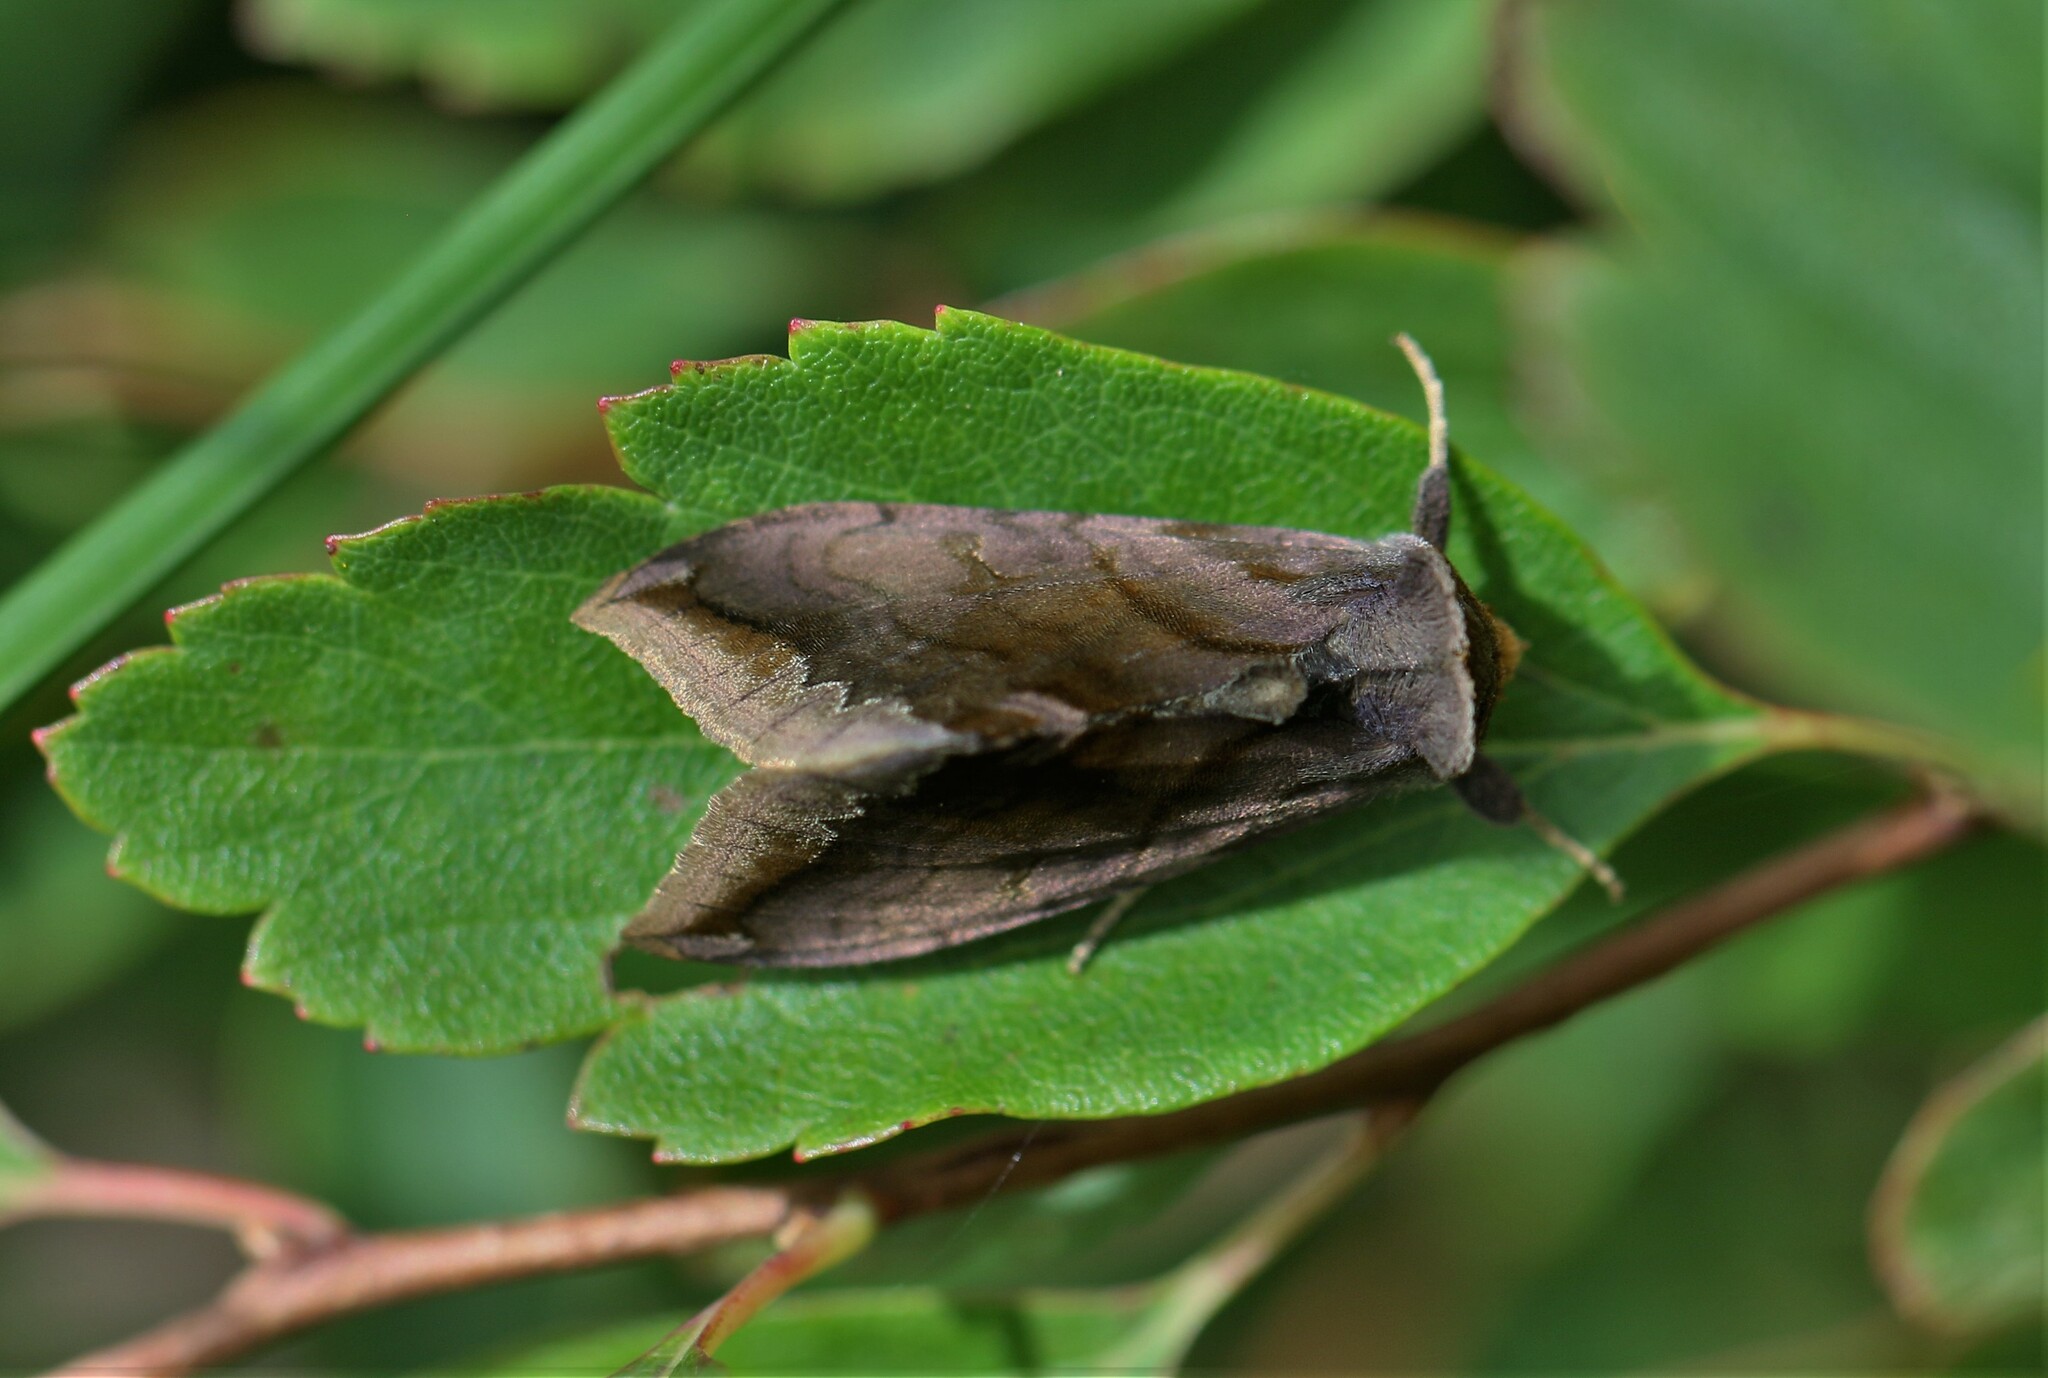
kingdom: Animalia
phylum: Arthropoda
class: Insecta
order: Lepidoptera
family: Noctuidae
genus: Allagrapha
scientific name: Allagrapha aerea
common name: Unspotted looper moth
